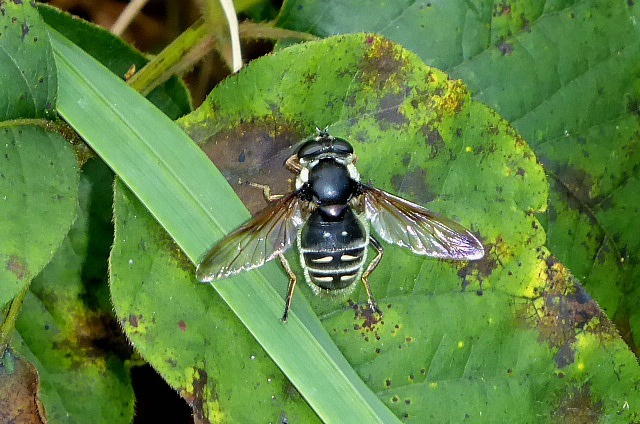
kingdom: Animalia
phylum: Arthropoda
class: Insecta
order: Diptera
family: Syrphidae
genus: Sericomyia
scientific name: Sericomyia militaris
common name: Narrow-banded pond fly
